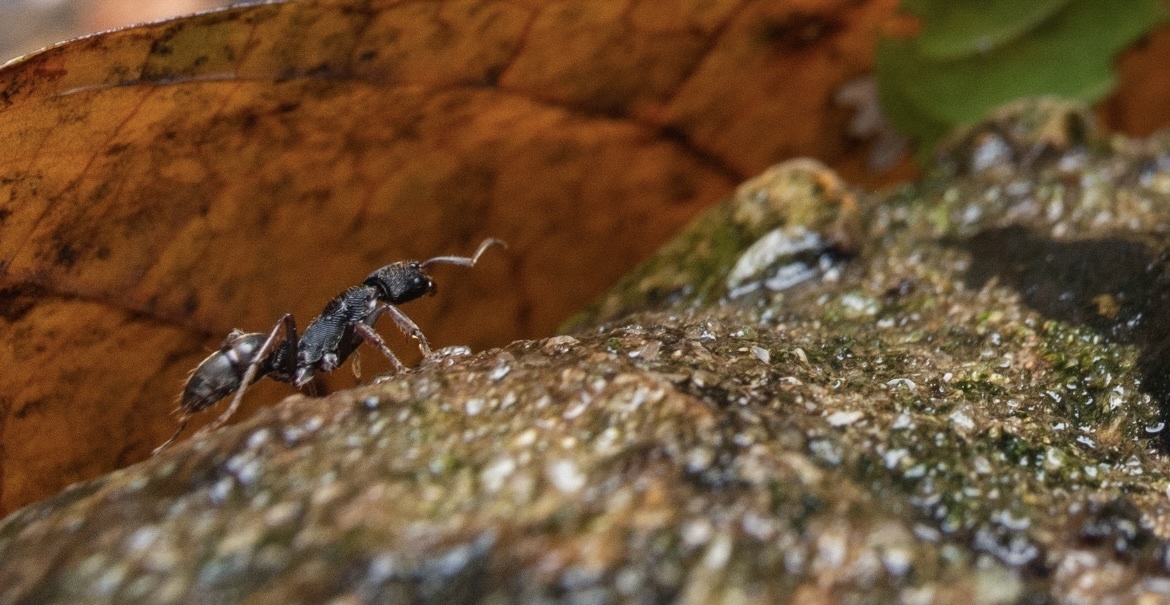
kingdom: Animalia
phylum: Arthropoda
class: Insecta
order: Hymenoptera
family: Formicidae
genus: Odontoponera
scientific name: Odontoponera denticulata
